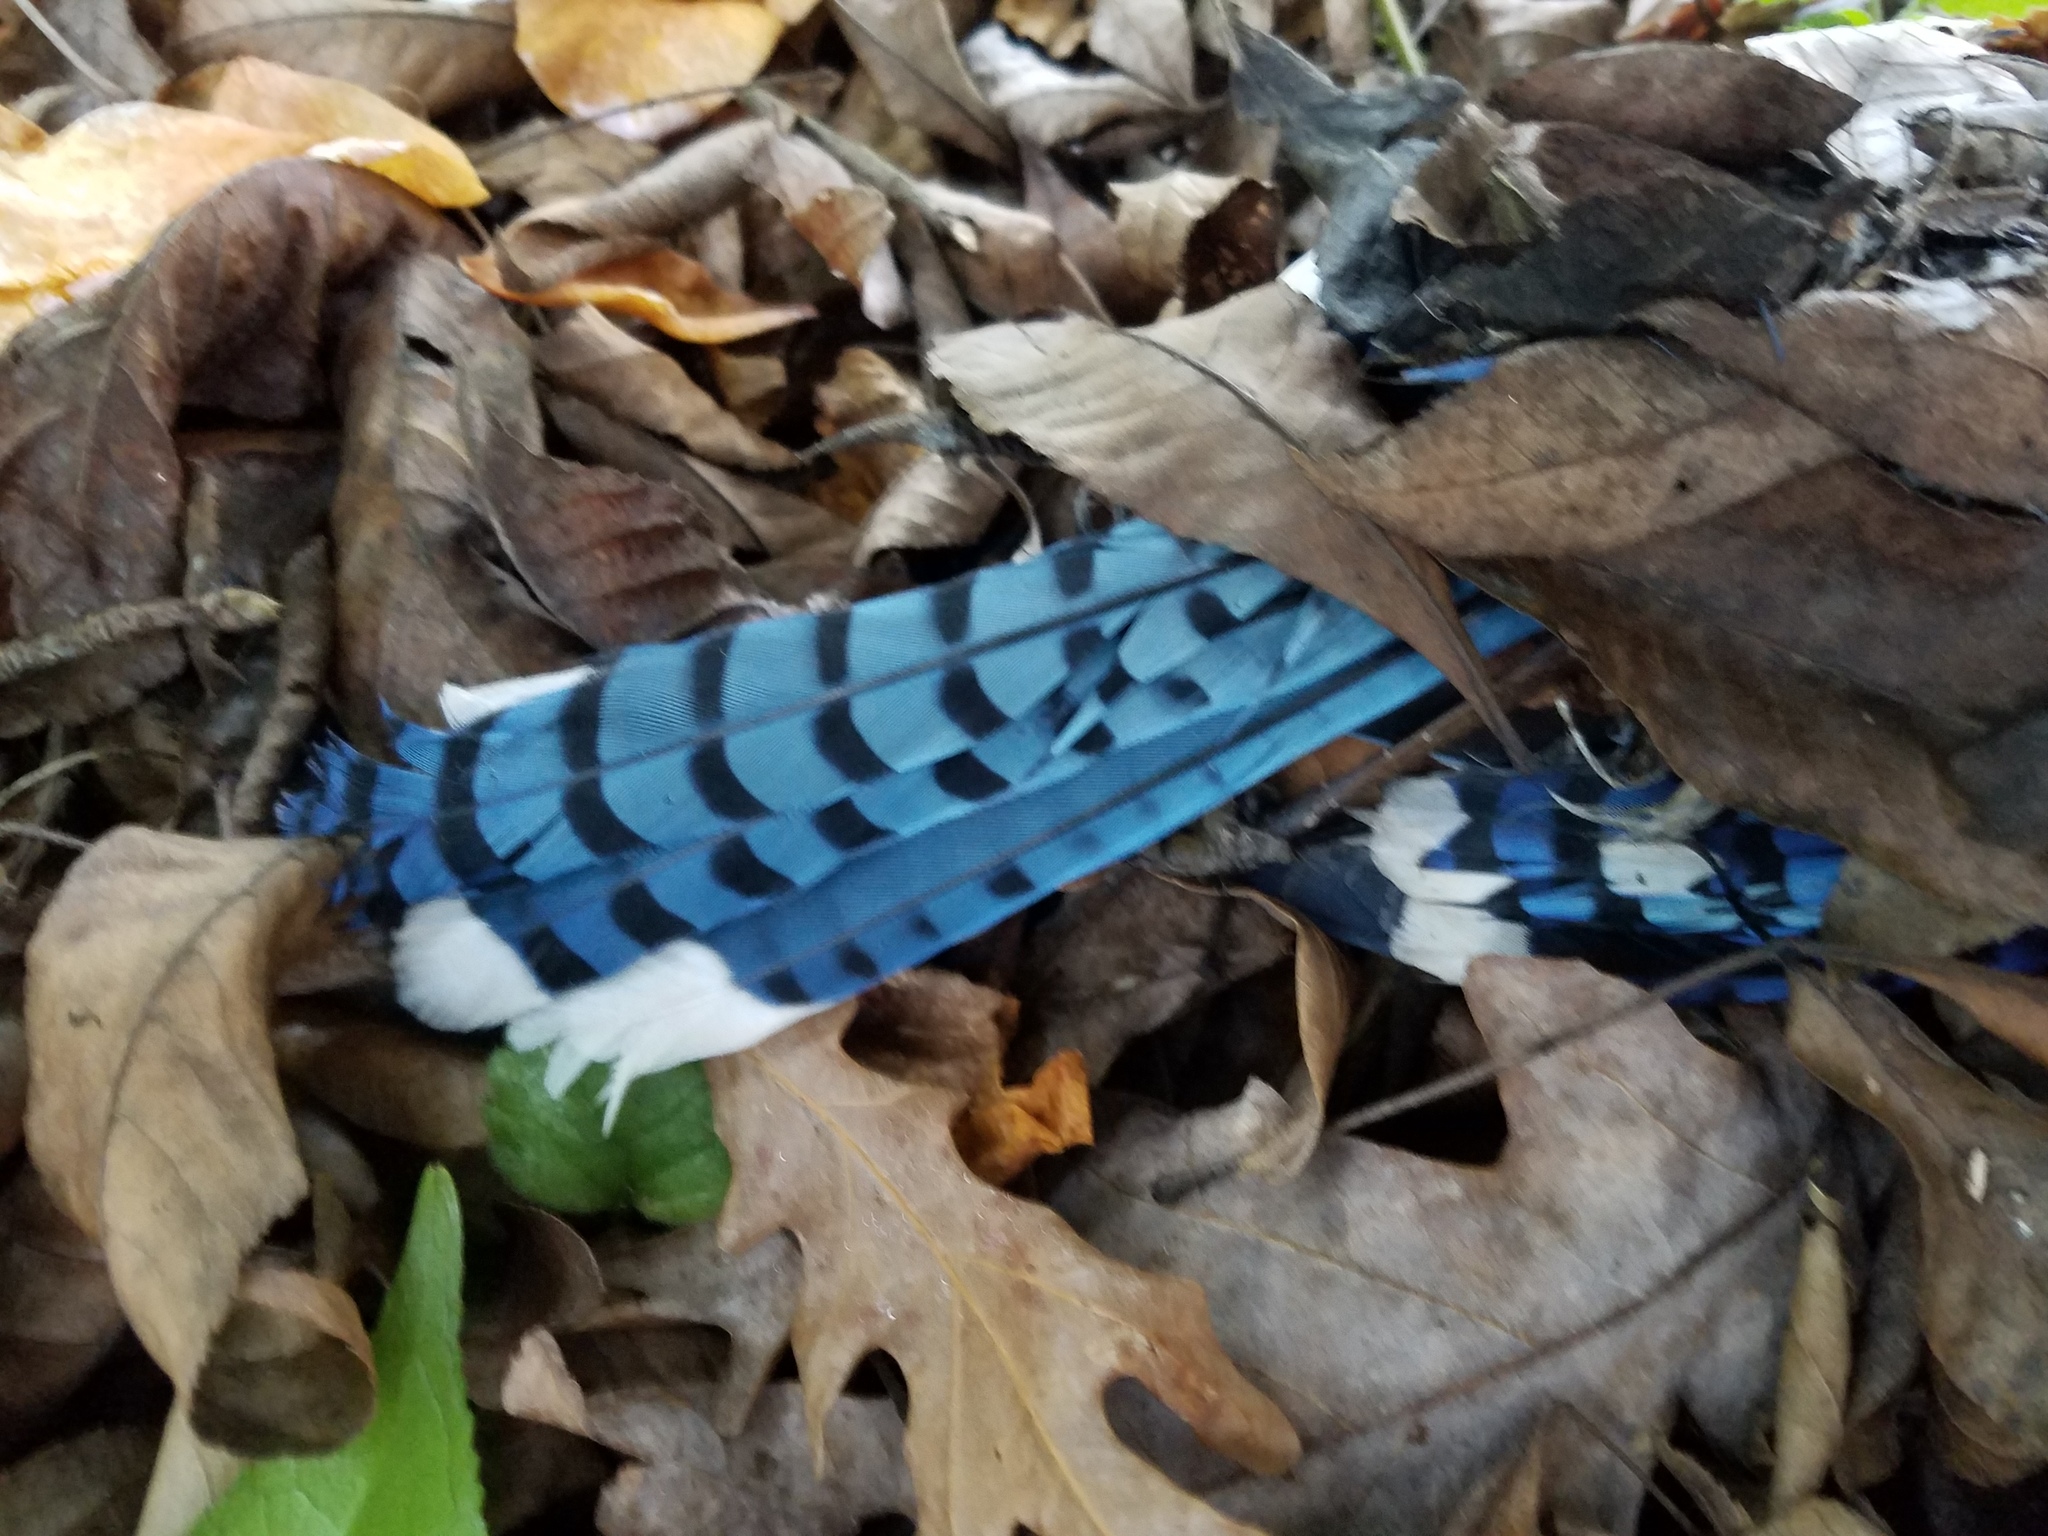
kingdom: Animalia
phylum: Chordata
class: Aves
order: Passeriformes
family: Corvidae
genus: Cyanocitta
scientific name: Cyanocitta cristata
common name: Blue jay
